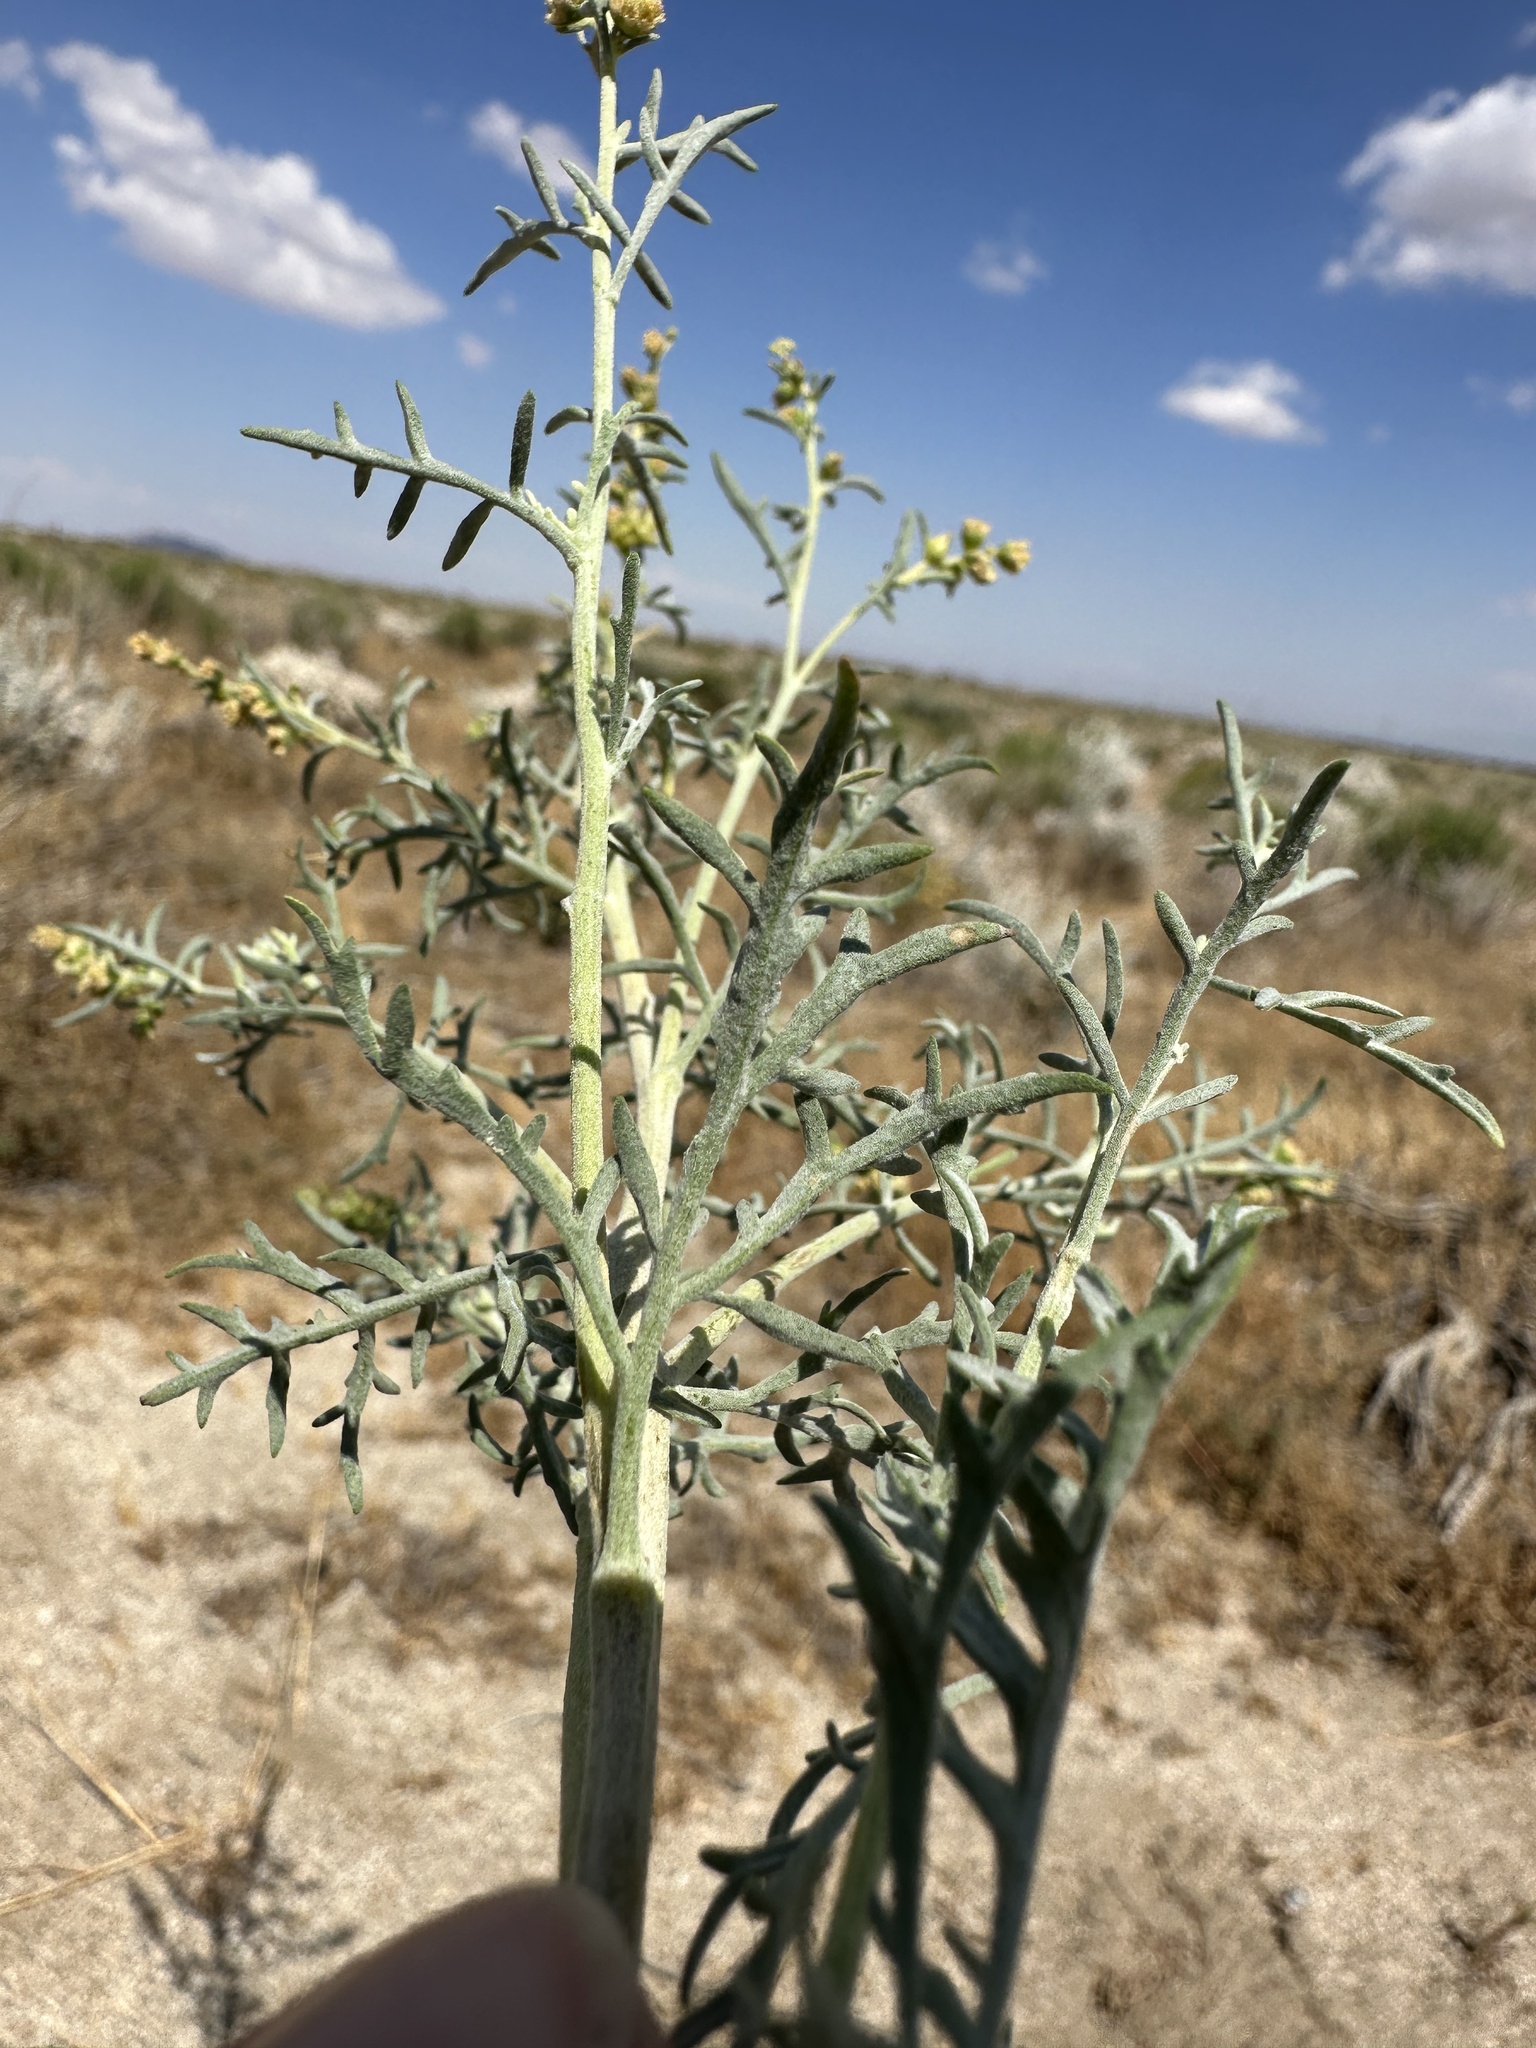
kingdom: Plantae
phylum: Tracheophyta
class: Magnoliopsida
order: Asterales
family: Asteraceae
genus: Ambrosia
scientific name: Ambrosia platyspina
